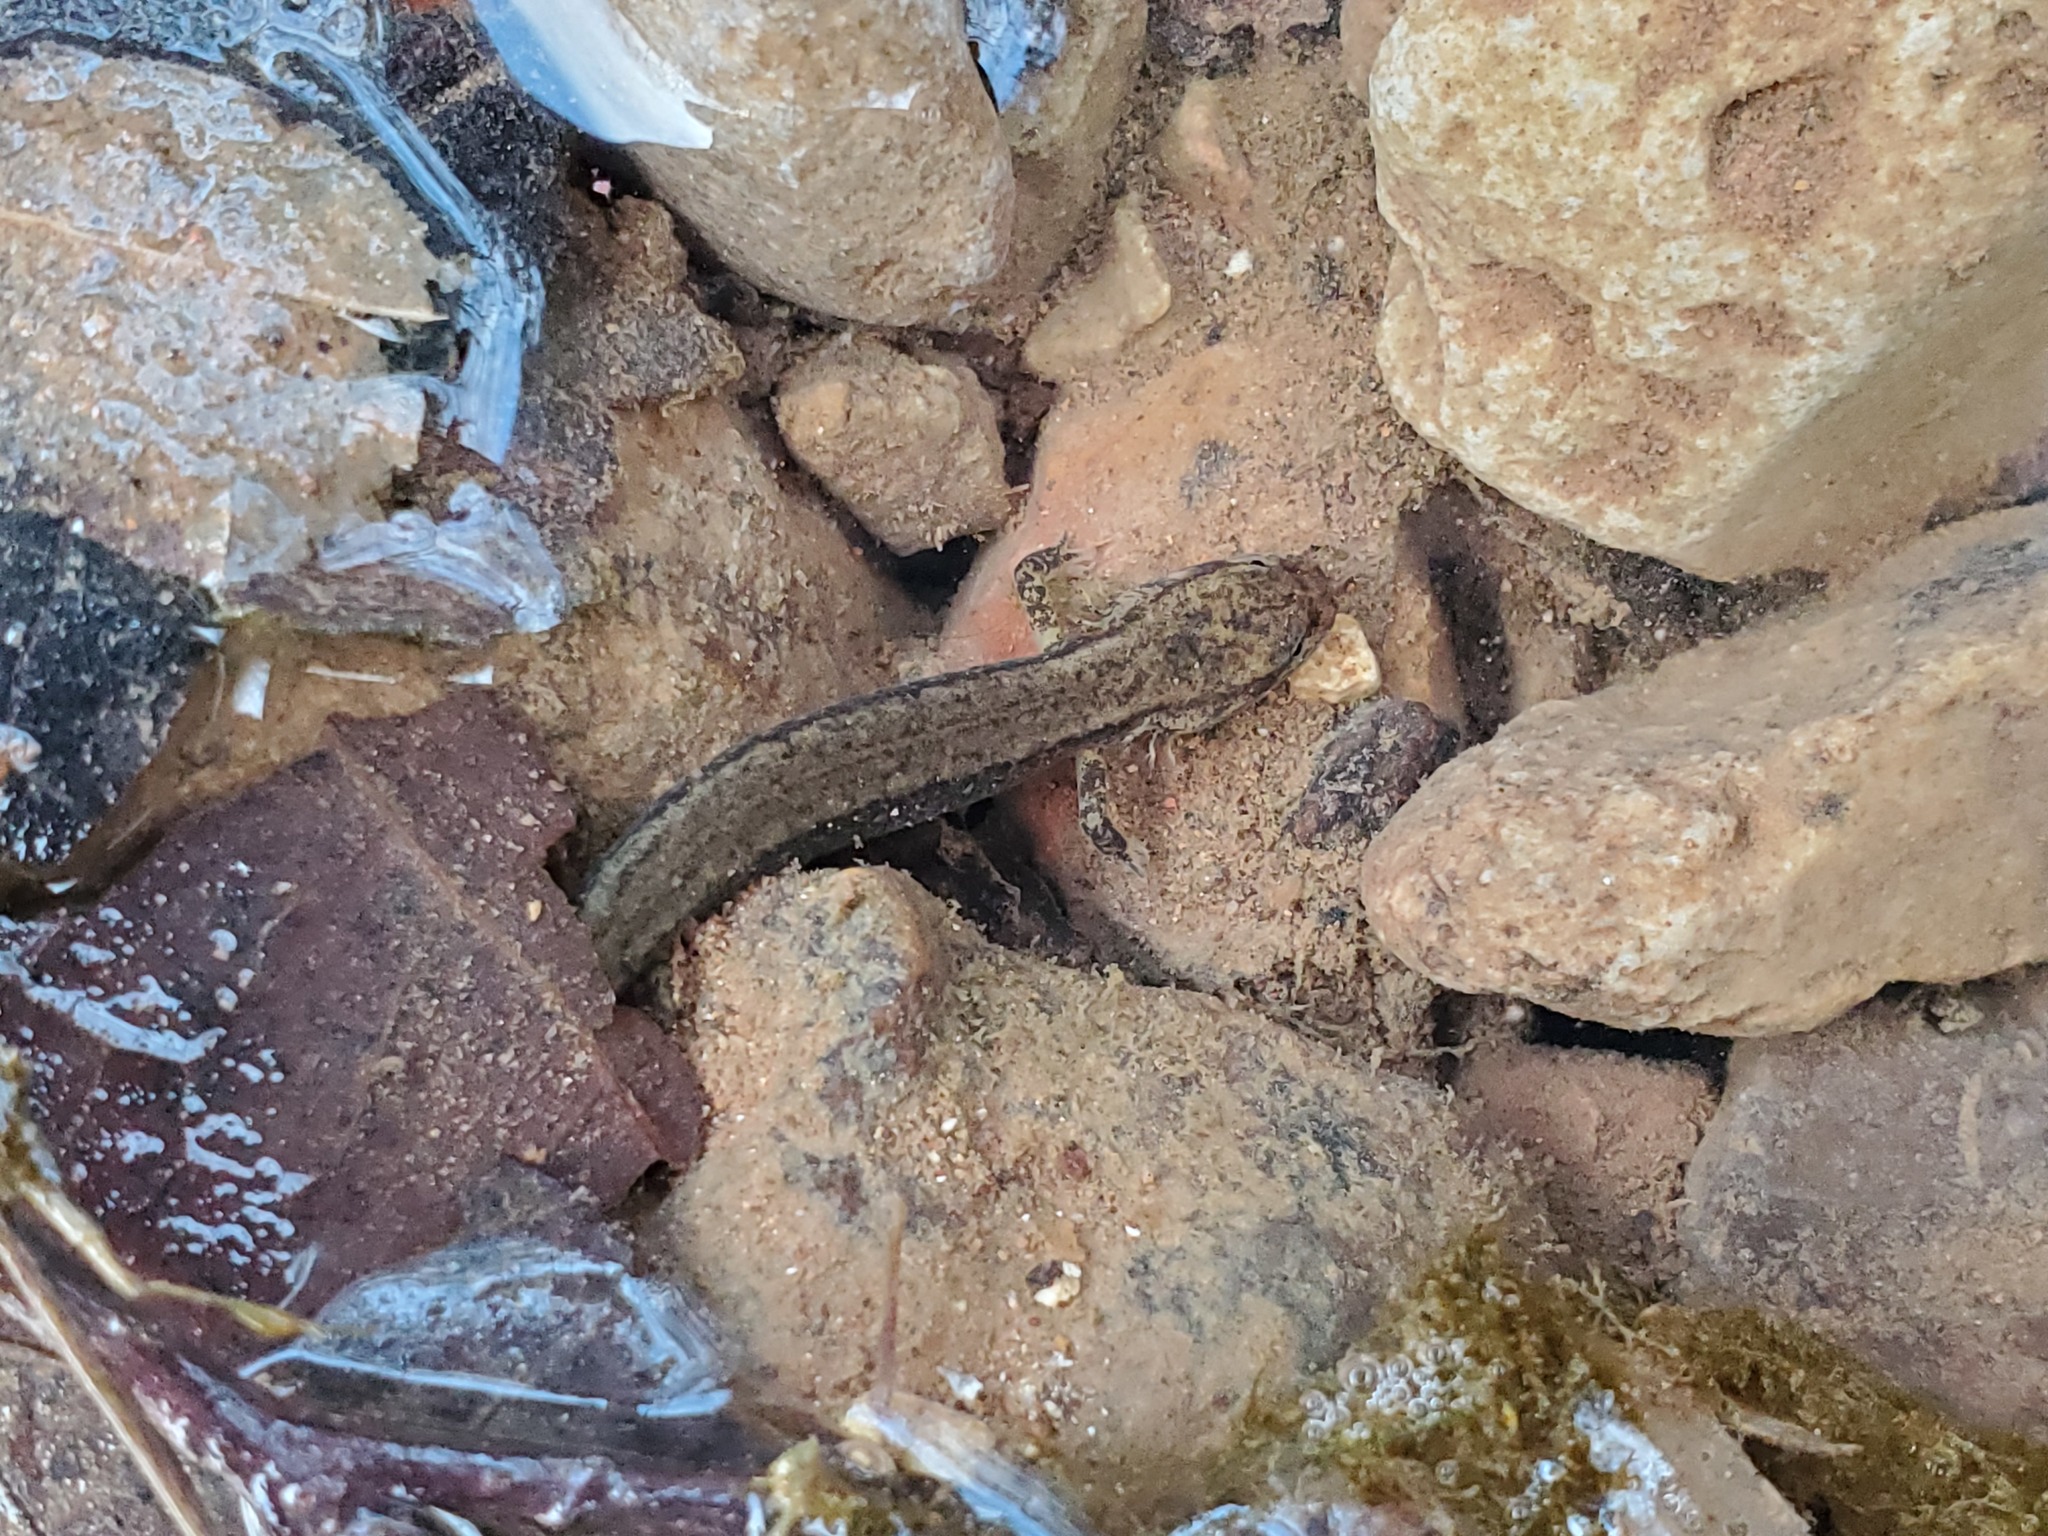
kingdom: Animalia
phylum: Chordata
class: Amphibia
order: Caudata
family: Plethodontidae
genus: Eurycea
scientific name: Eurycea cirrigera
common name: Southern two-lined salamander
